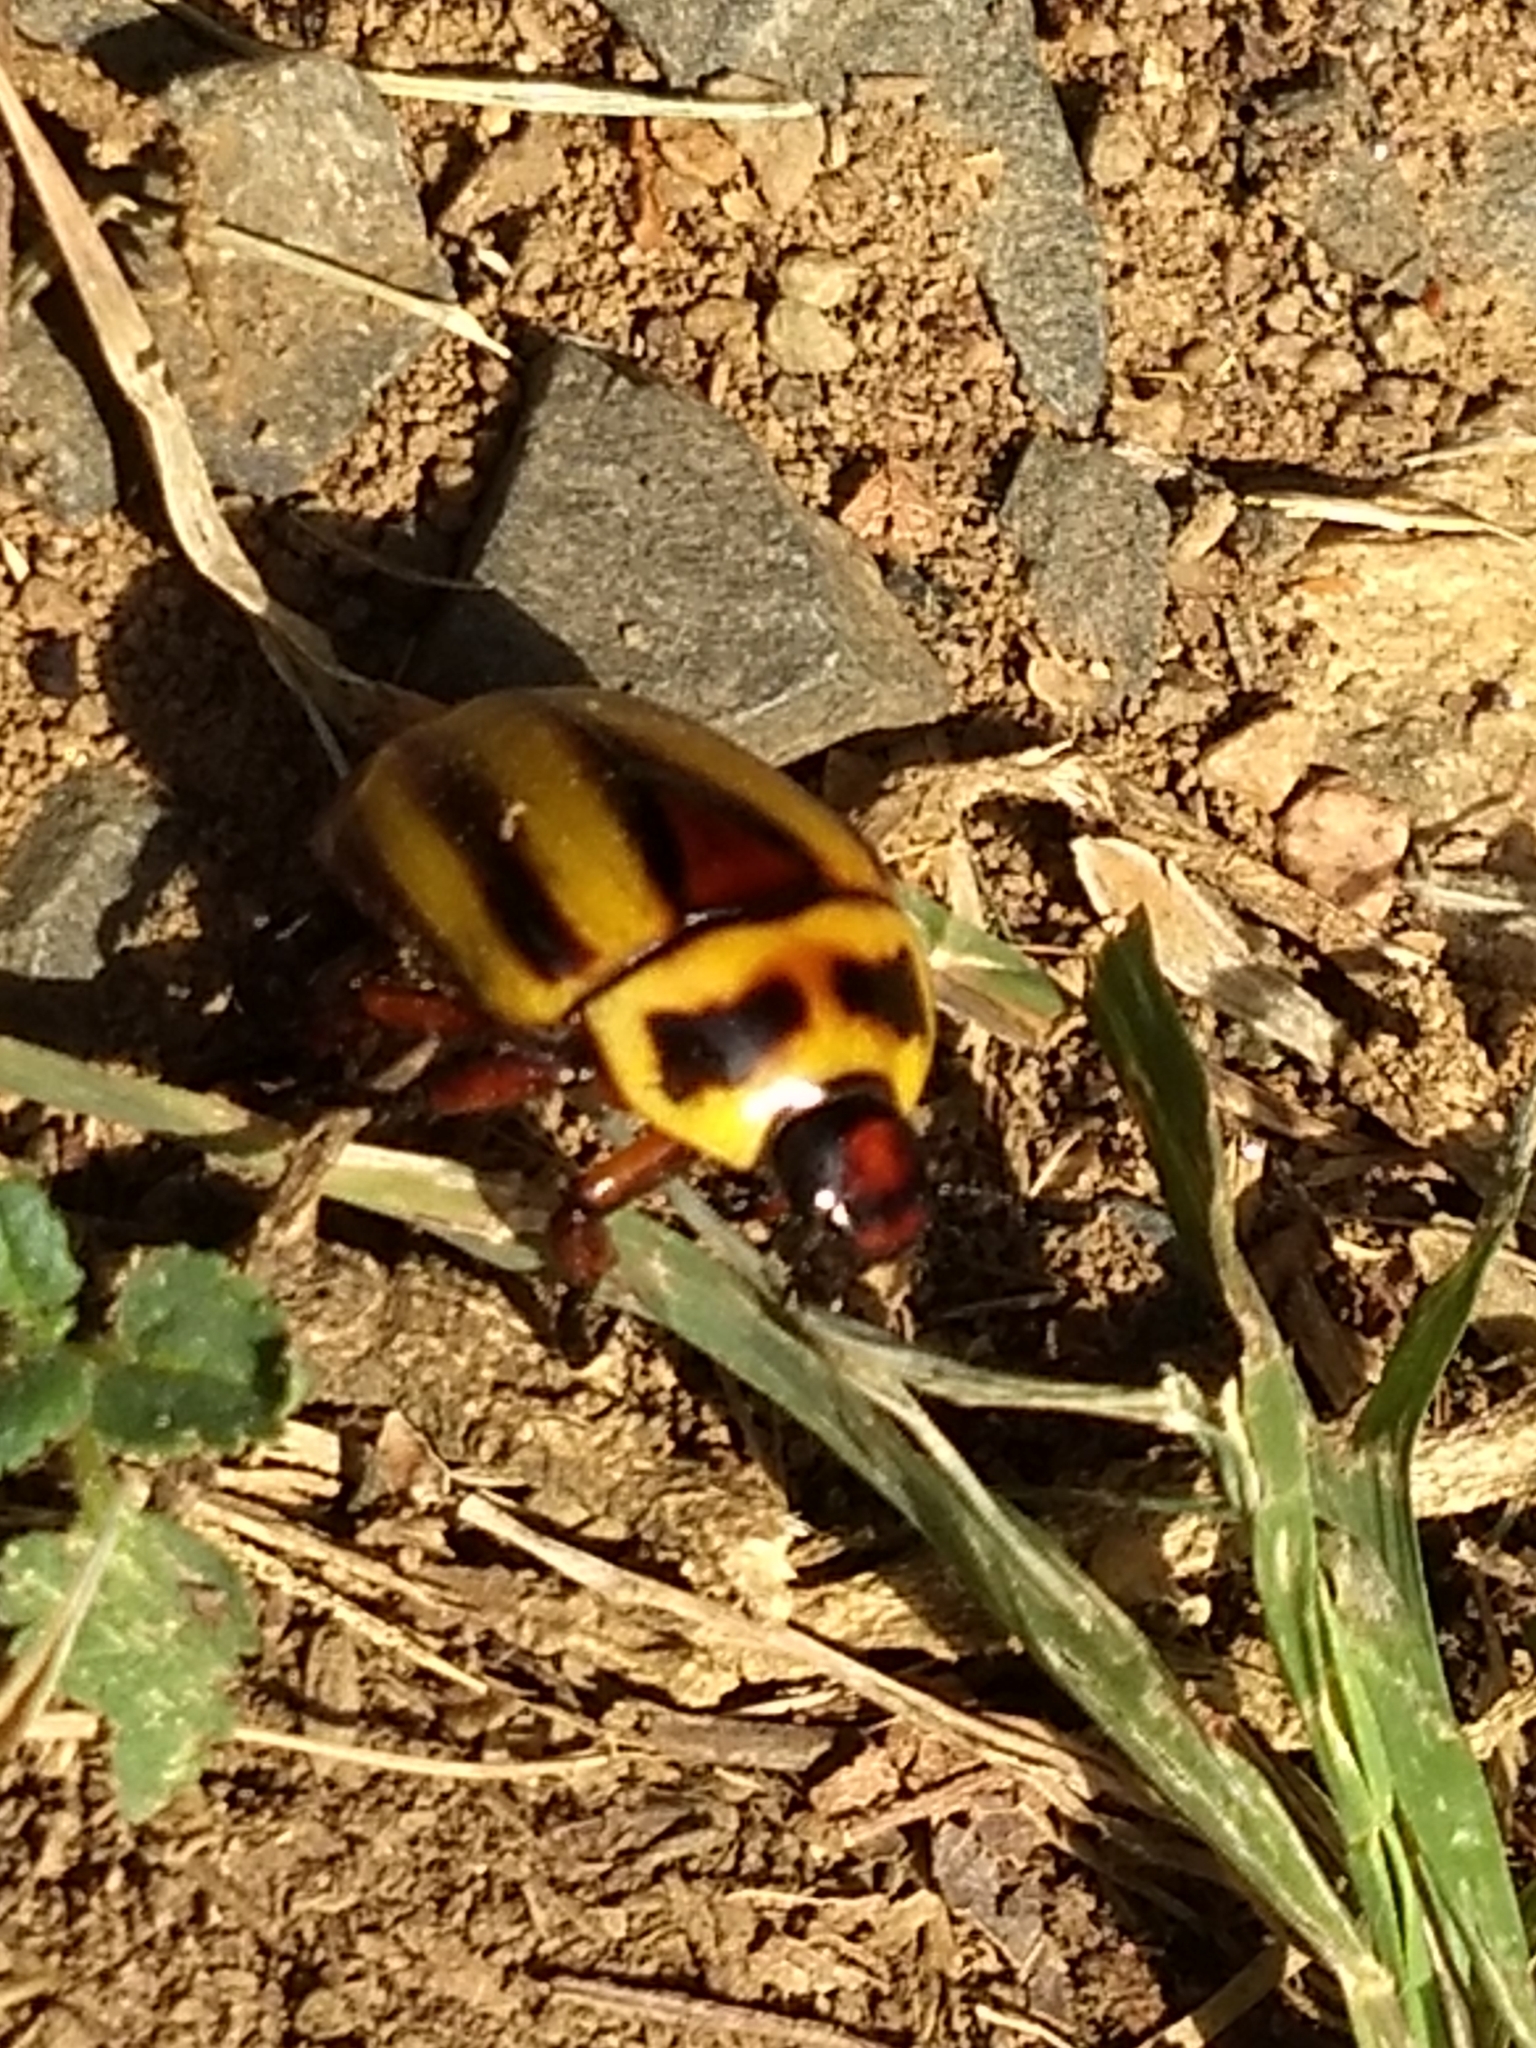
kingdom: Animalia
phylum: Arthropoda
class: Insecta
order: Coleoptera
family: Scarabaeidae
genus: Macraspis
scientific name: Macraspis cincta
